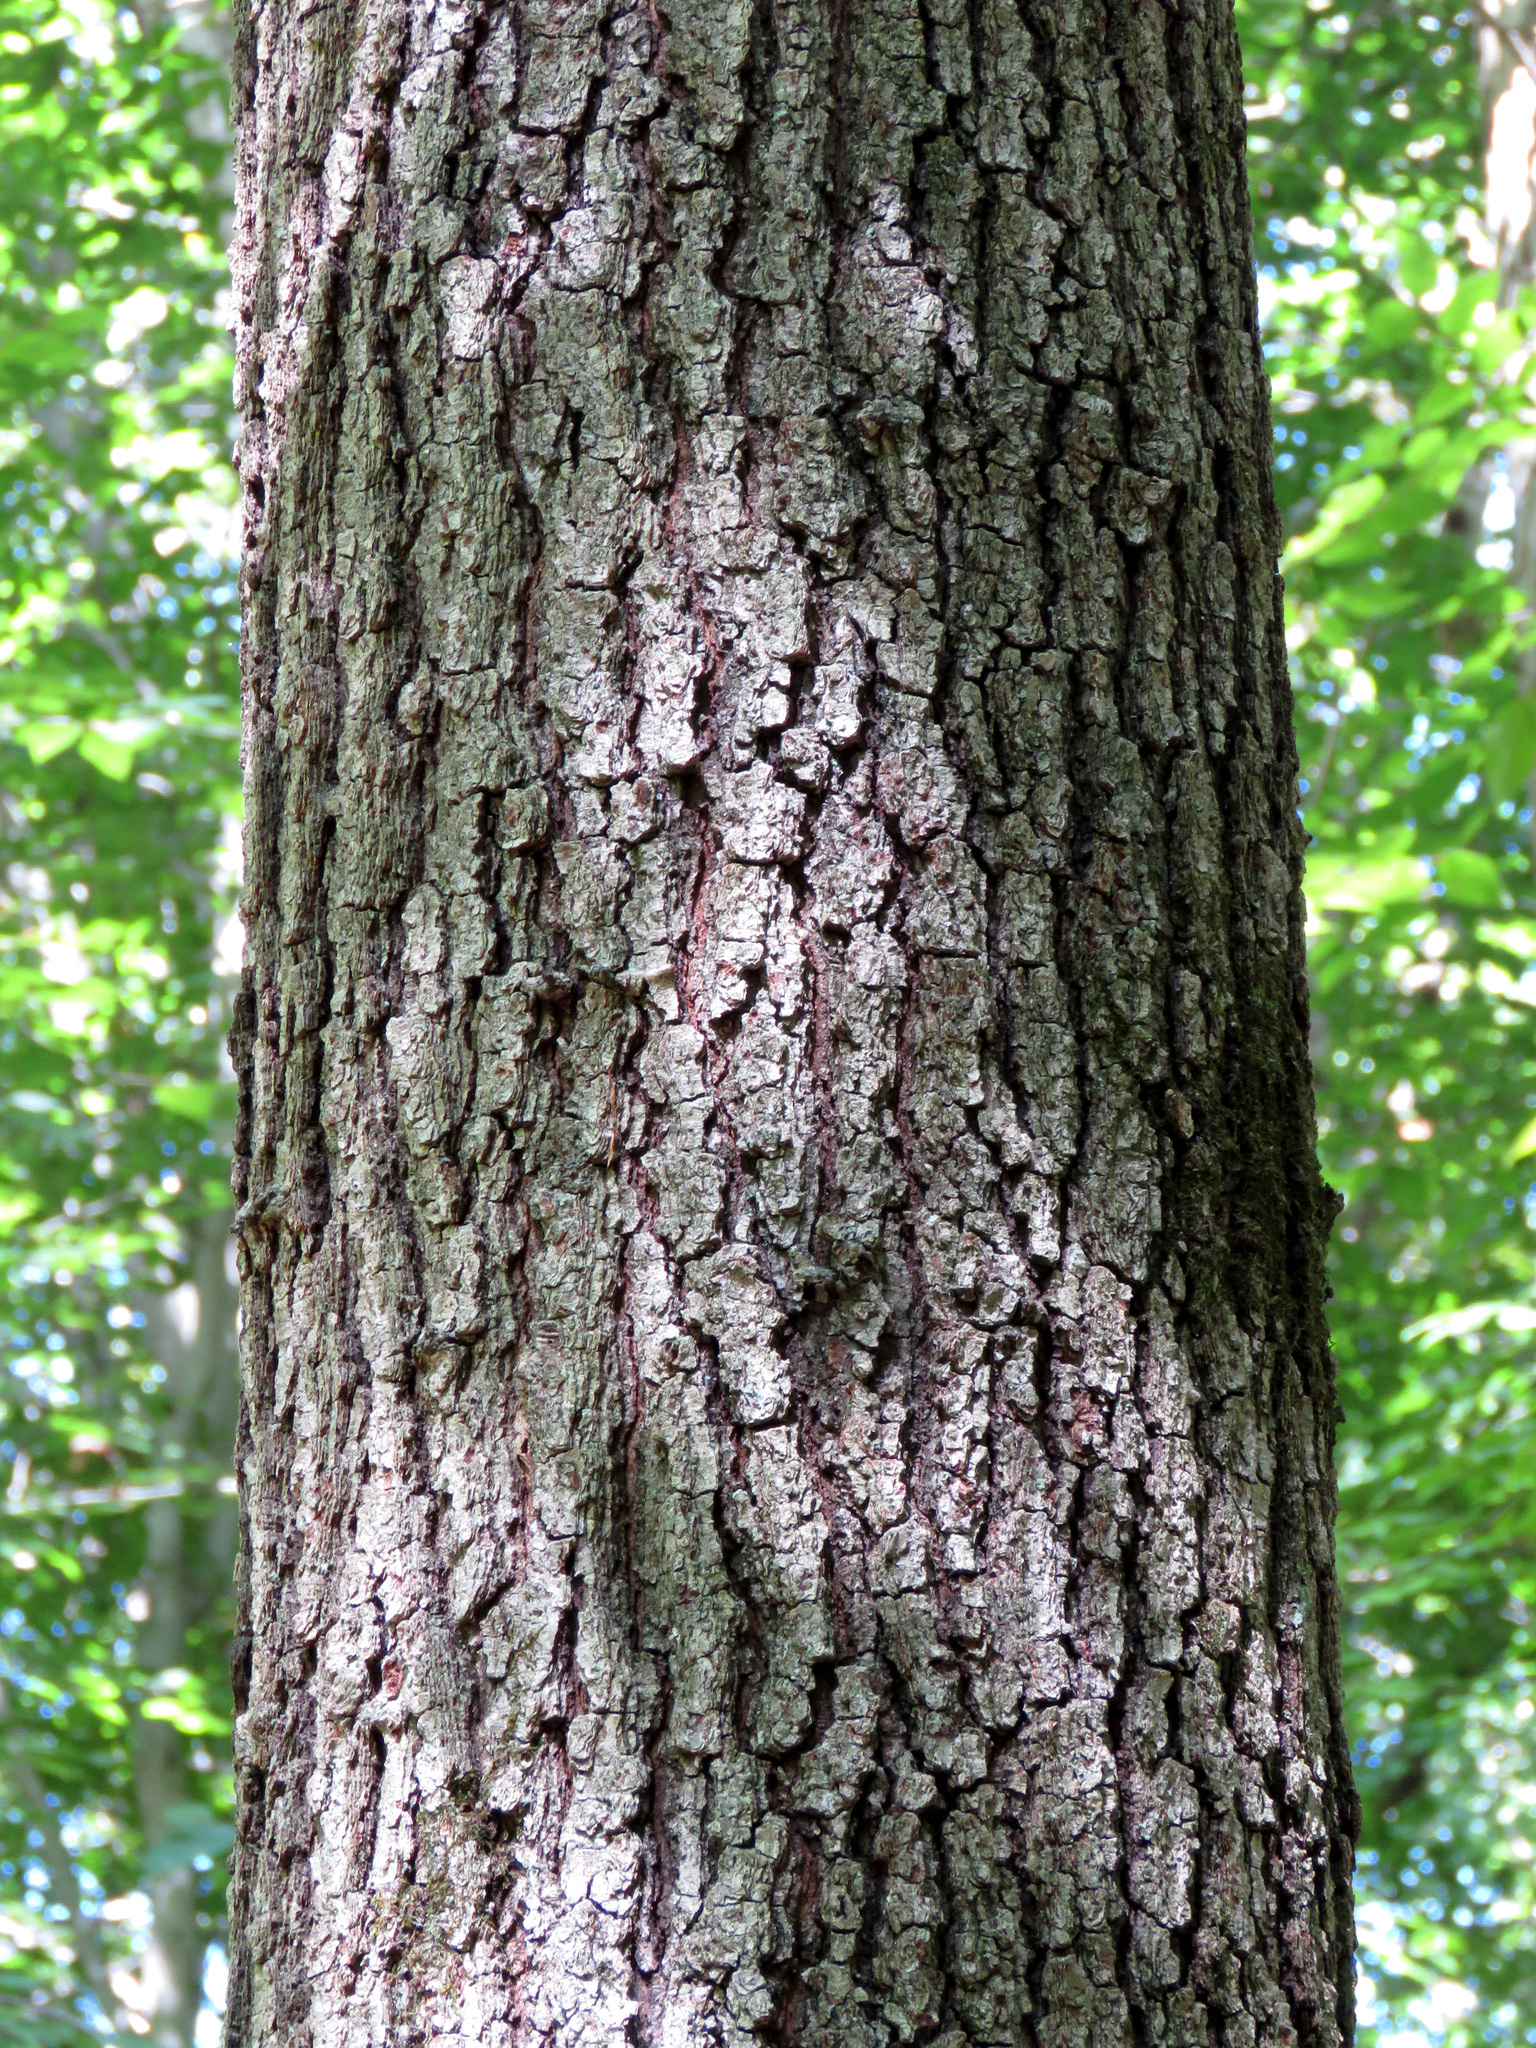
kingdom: Plantae
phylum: Tracheophyta
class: Magnoliopsida
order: Fagales
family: Fagaceae
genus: Quercus
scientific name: Quercus falcata
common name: Southern red oak
